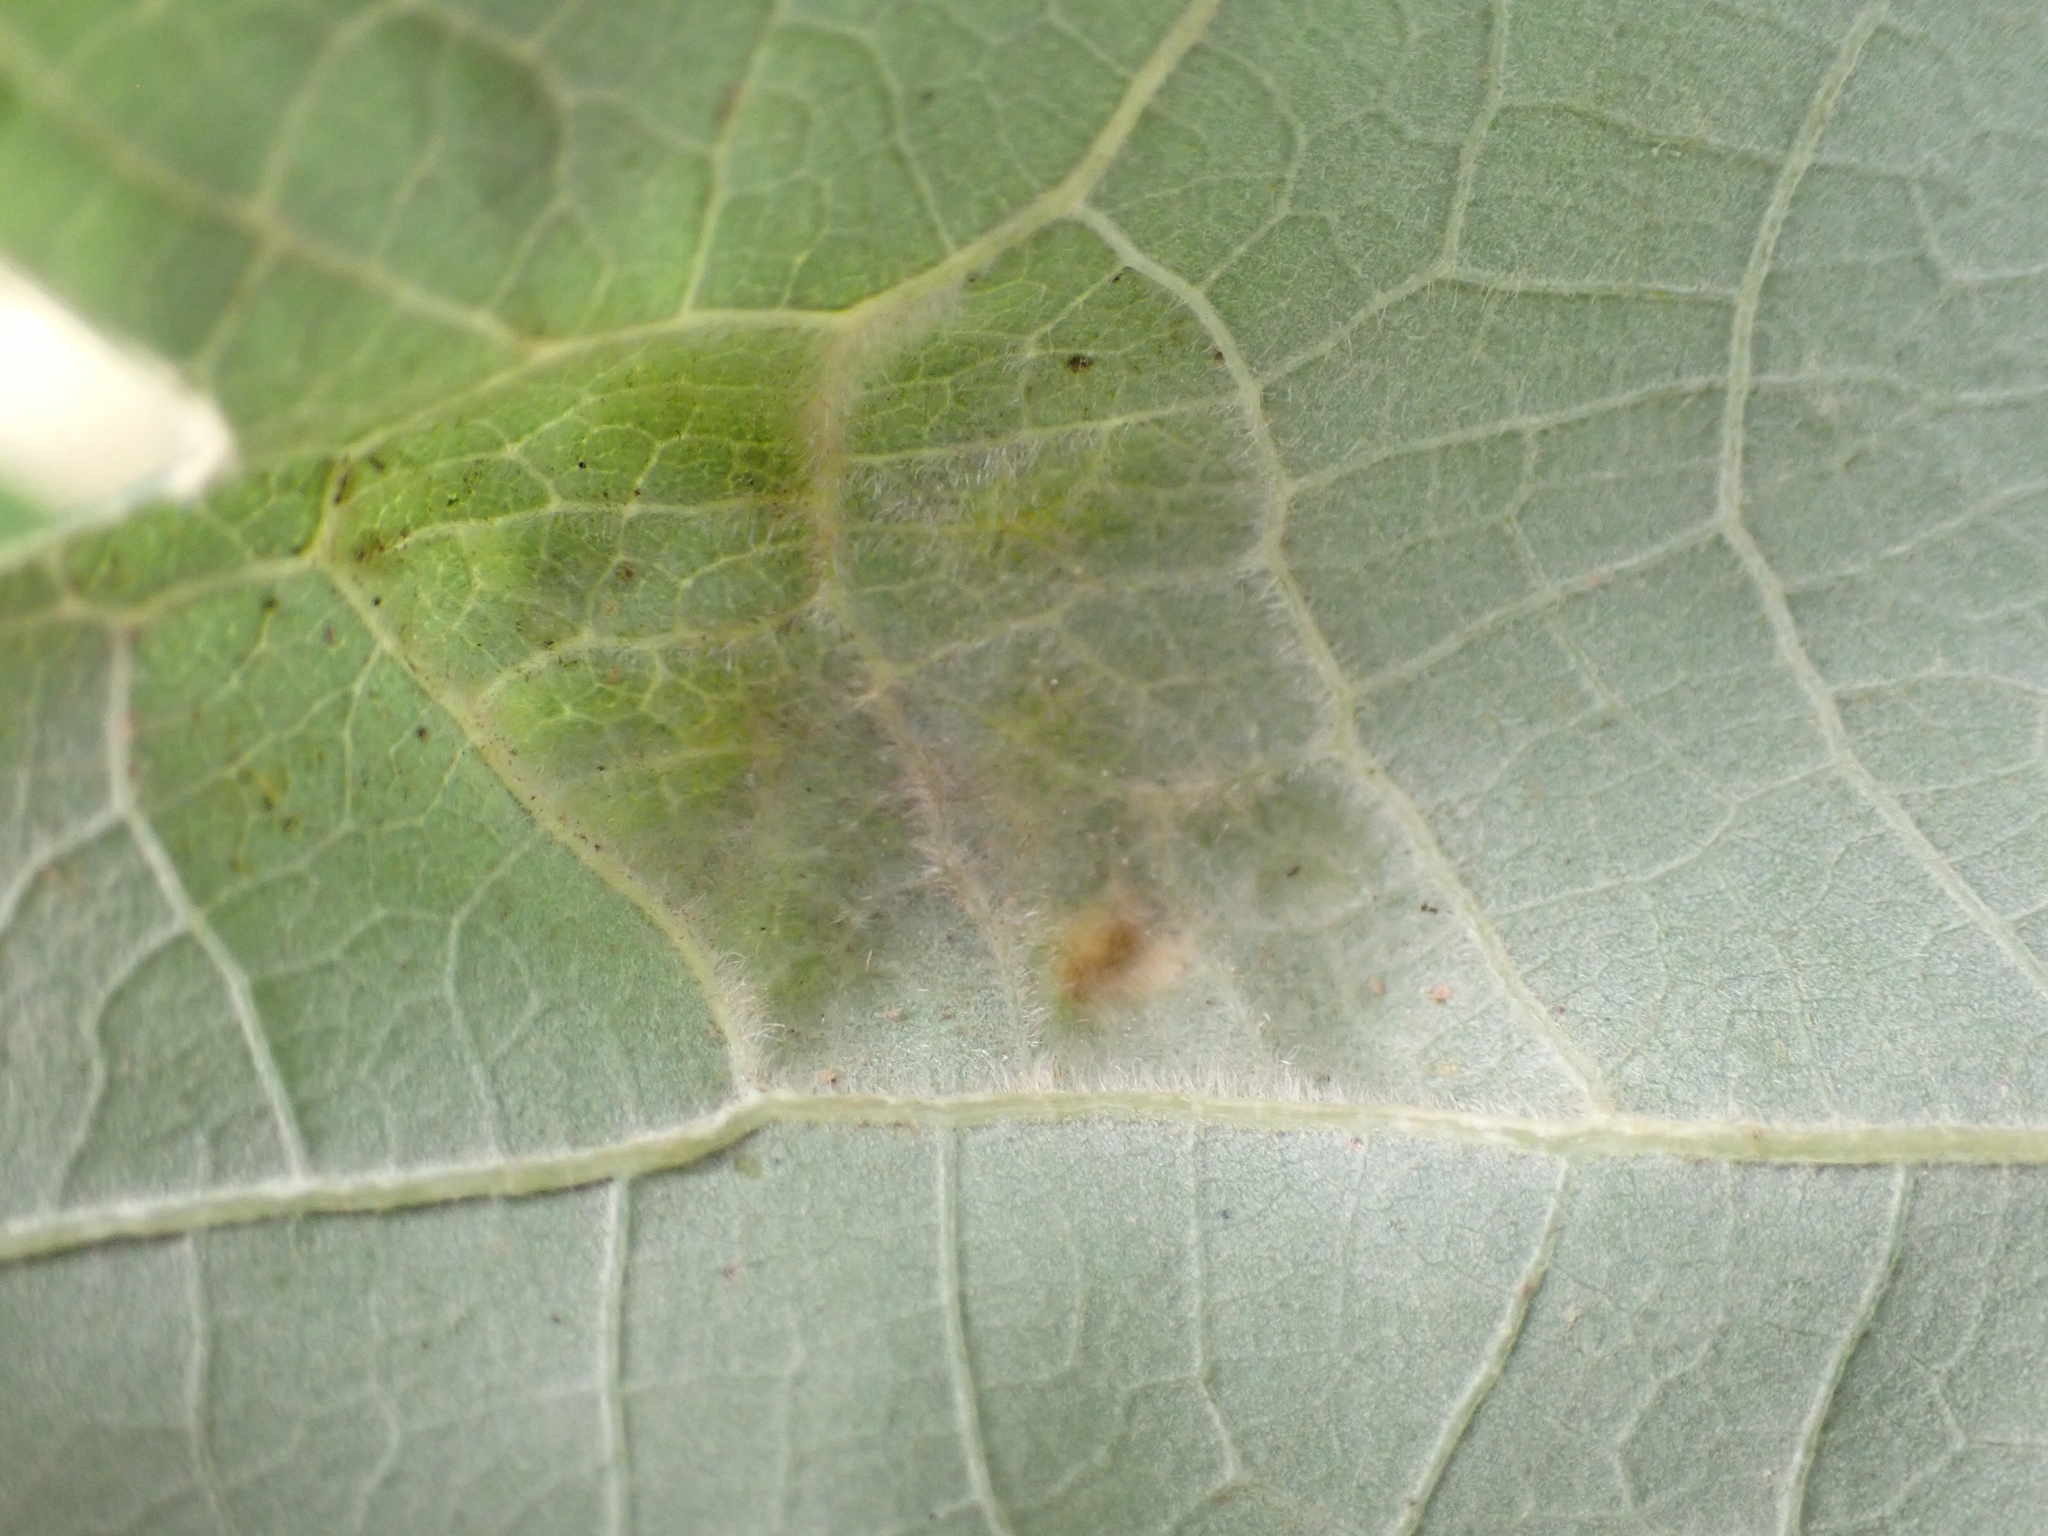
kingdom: Animalia
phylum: Arthropoda
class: Arachnida
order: Trombidiformes
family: Eriophyidae
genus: Aceria
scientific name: Aceria quercina
